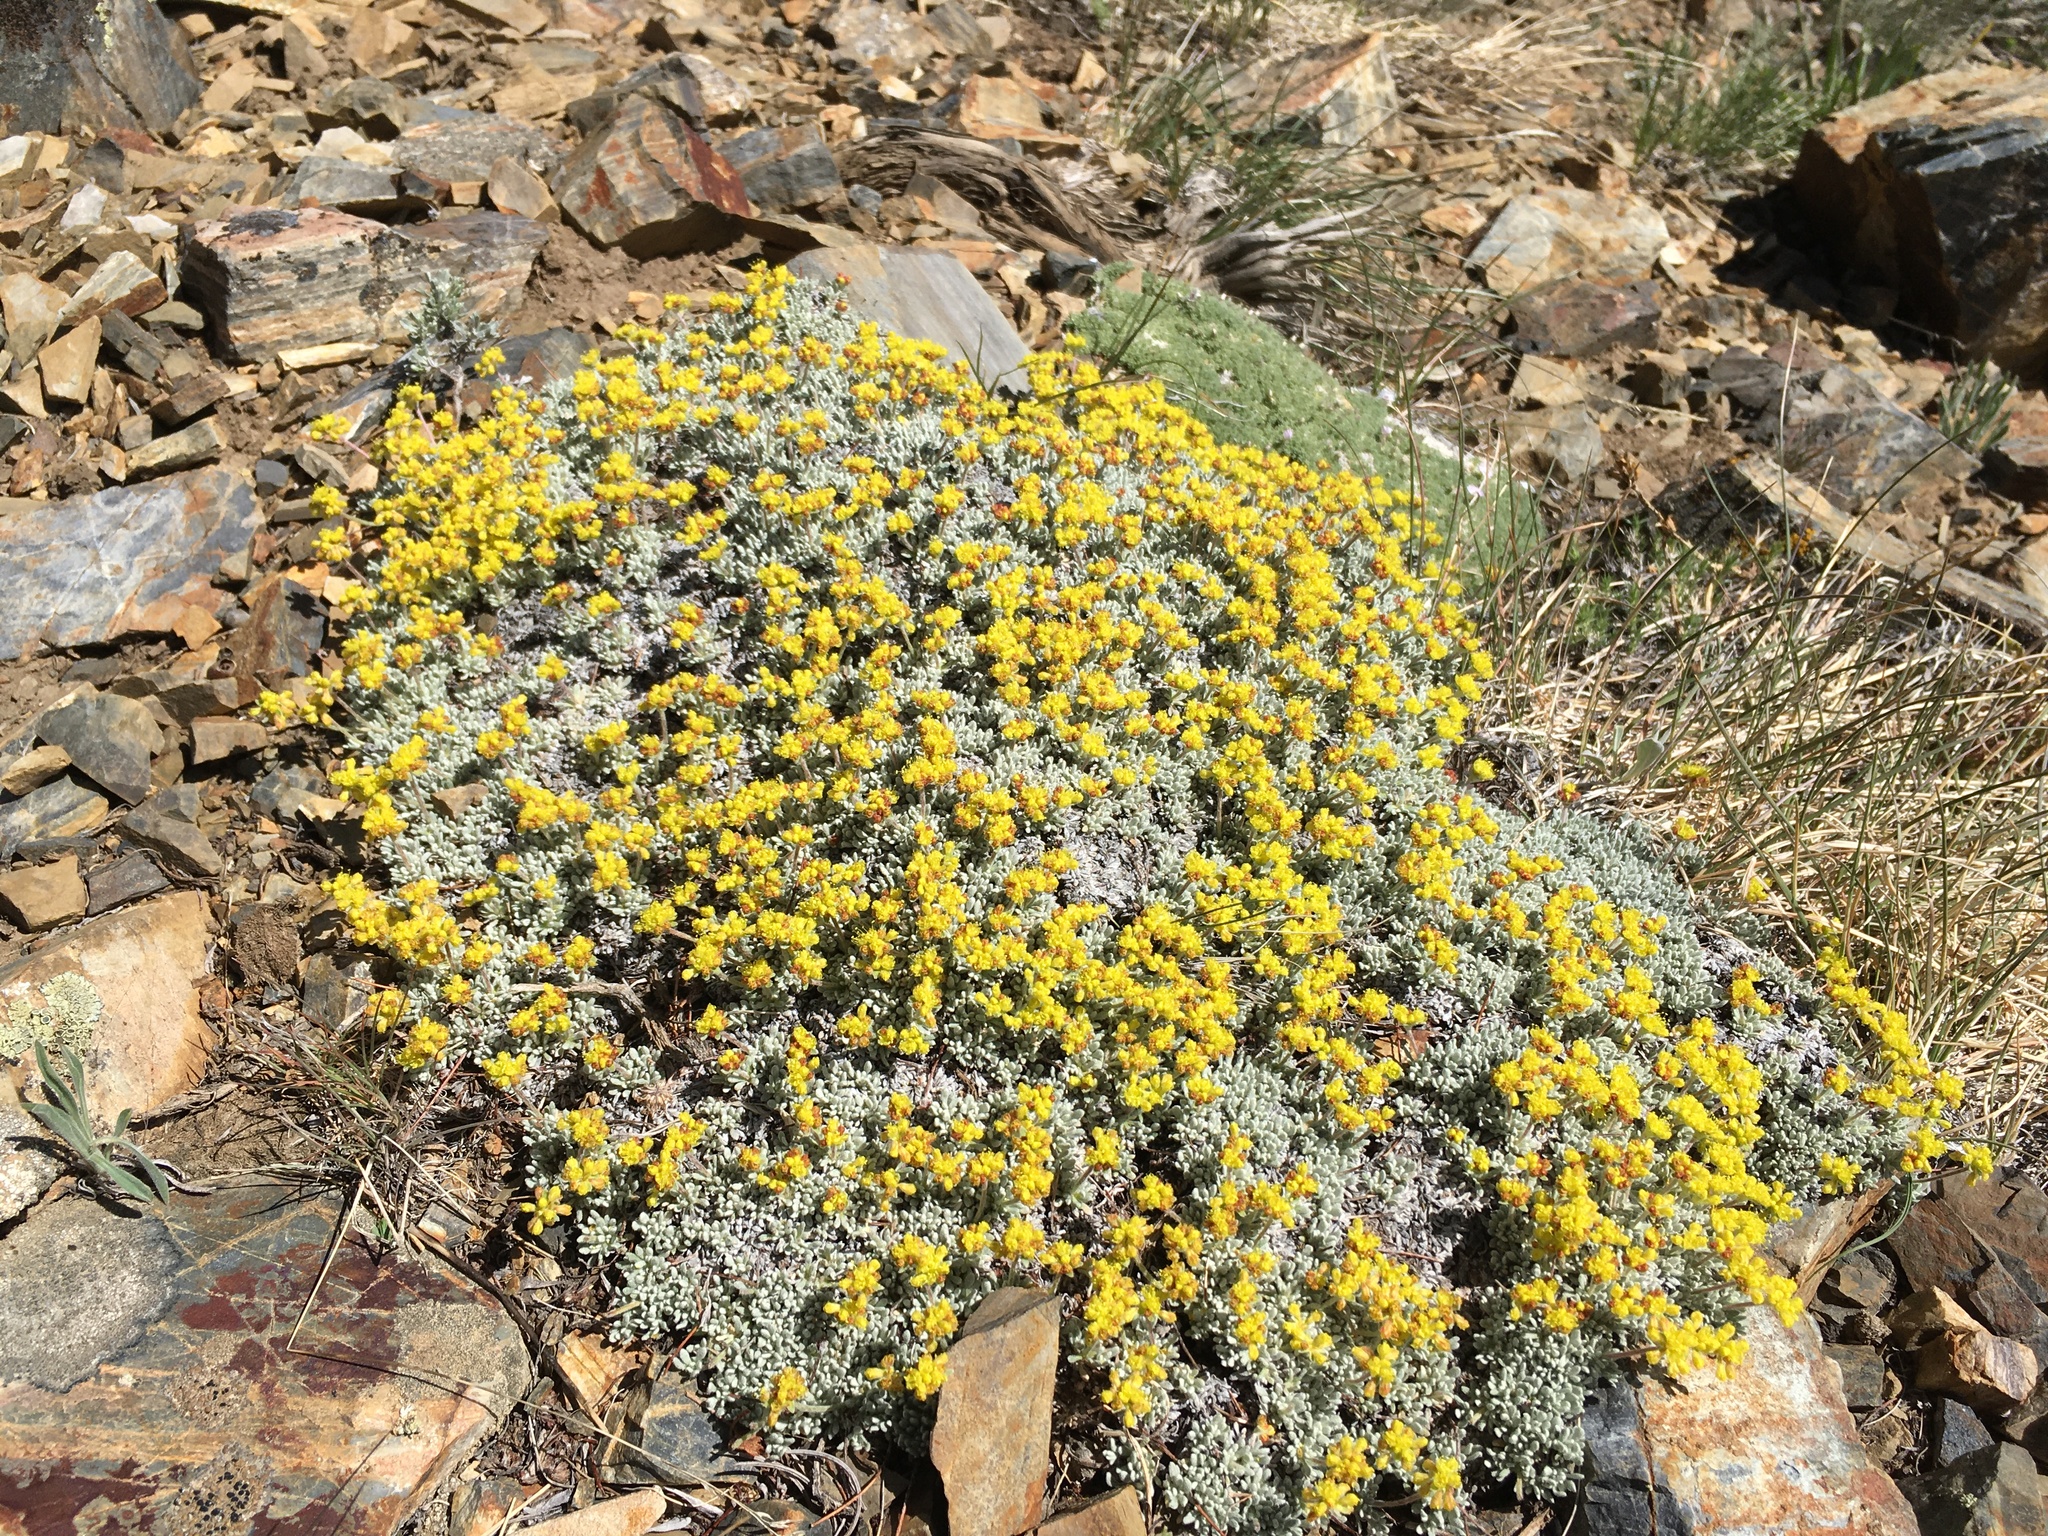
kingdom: Plantae
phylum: Tracheophyta
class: Magnoliopsida
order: Caryophyllales
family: Polygonaceae
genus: Eriogonum
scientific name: Eriogonum caespitosum
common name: Matted wild buckwheat
